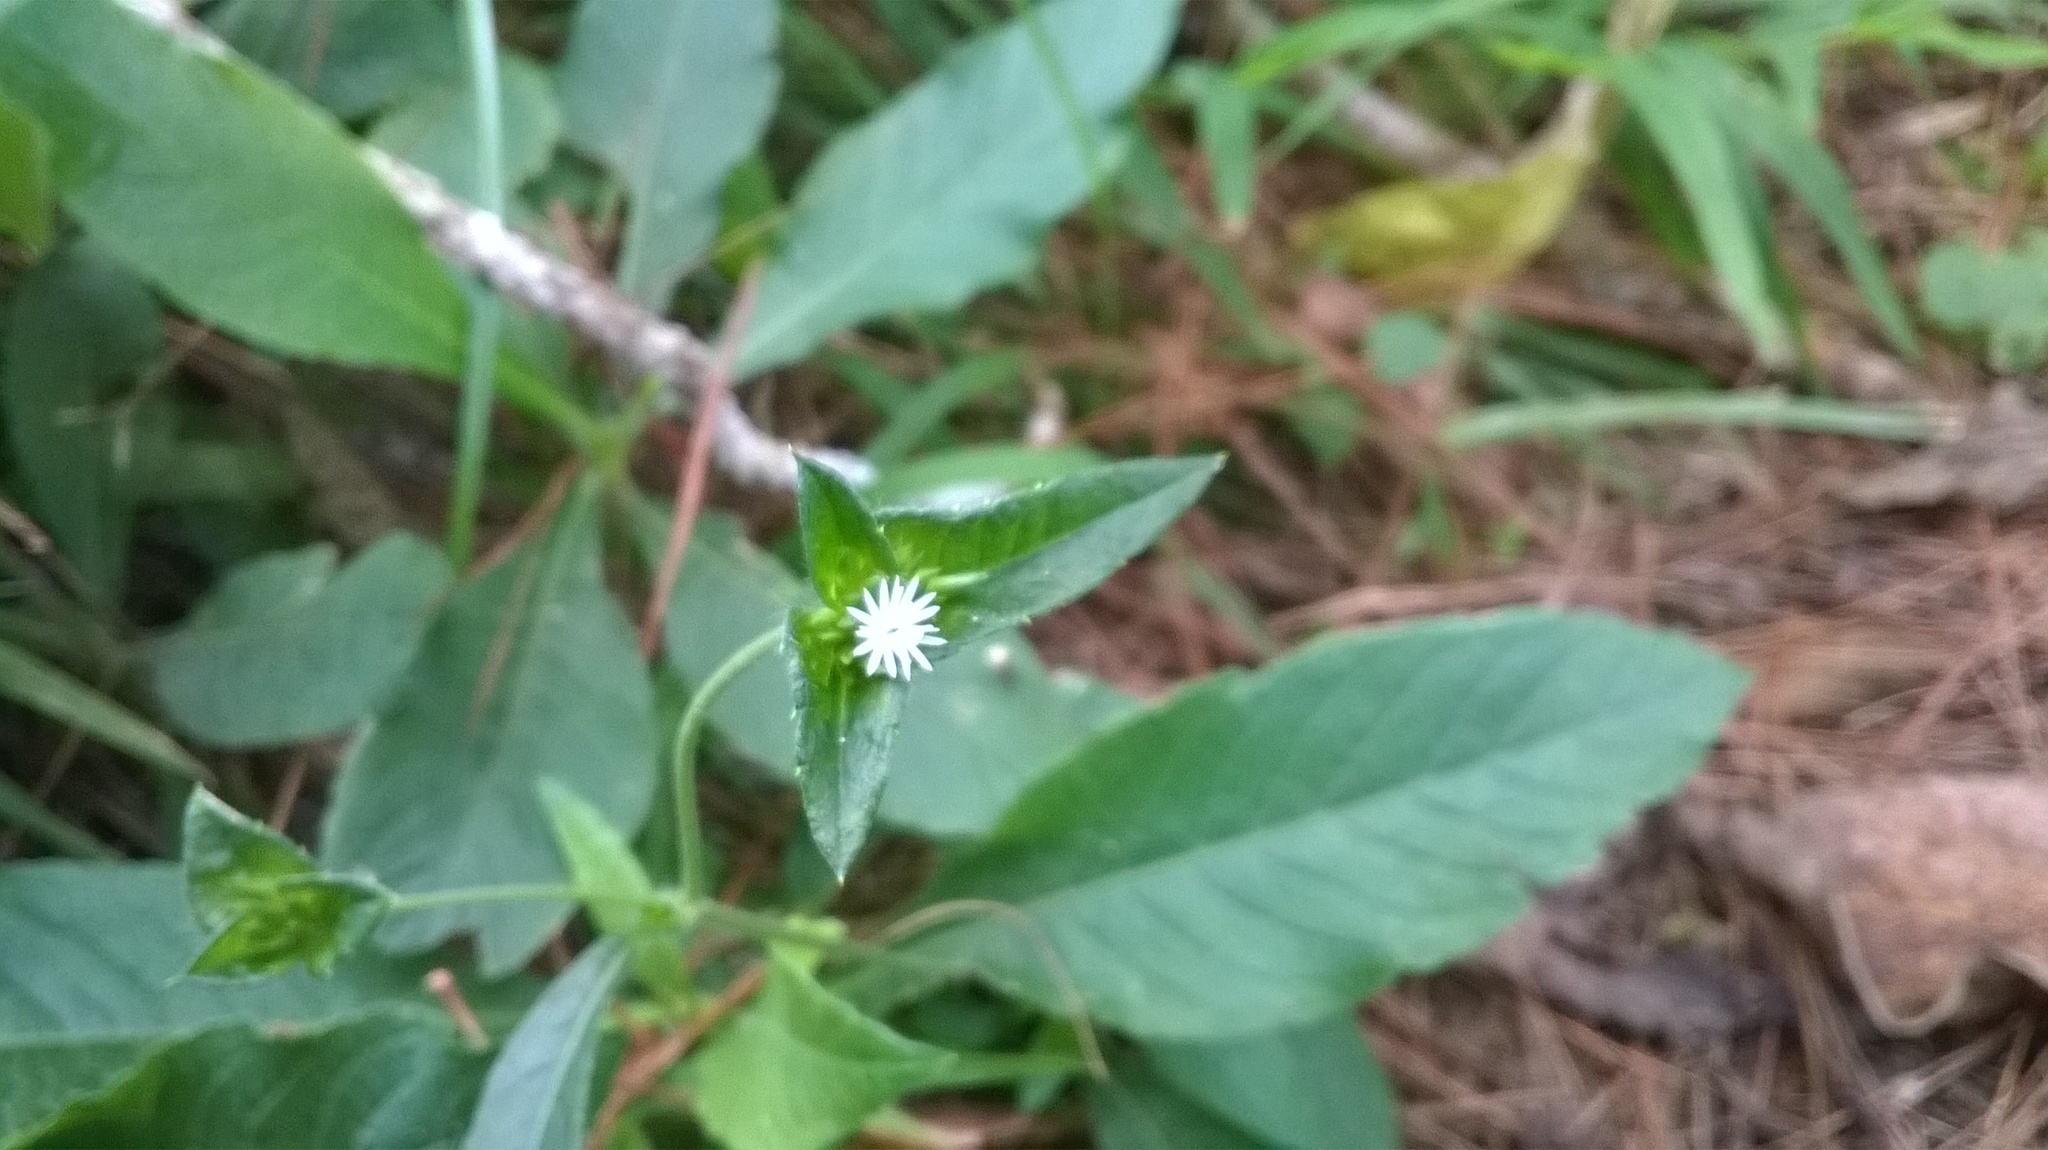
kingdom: Plantae
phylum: Tracheophyta
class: Magnoliopsida
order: Asterales
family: Asteraceae
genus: Elephantopus
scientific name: Elephantopus mollis
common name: Soft elephantsfoot
